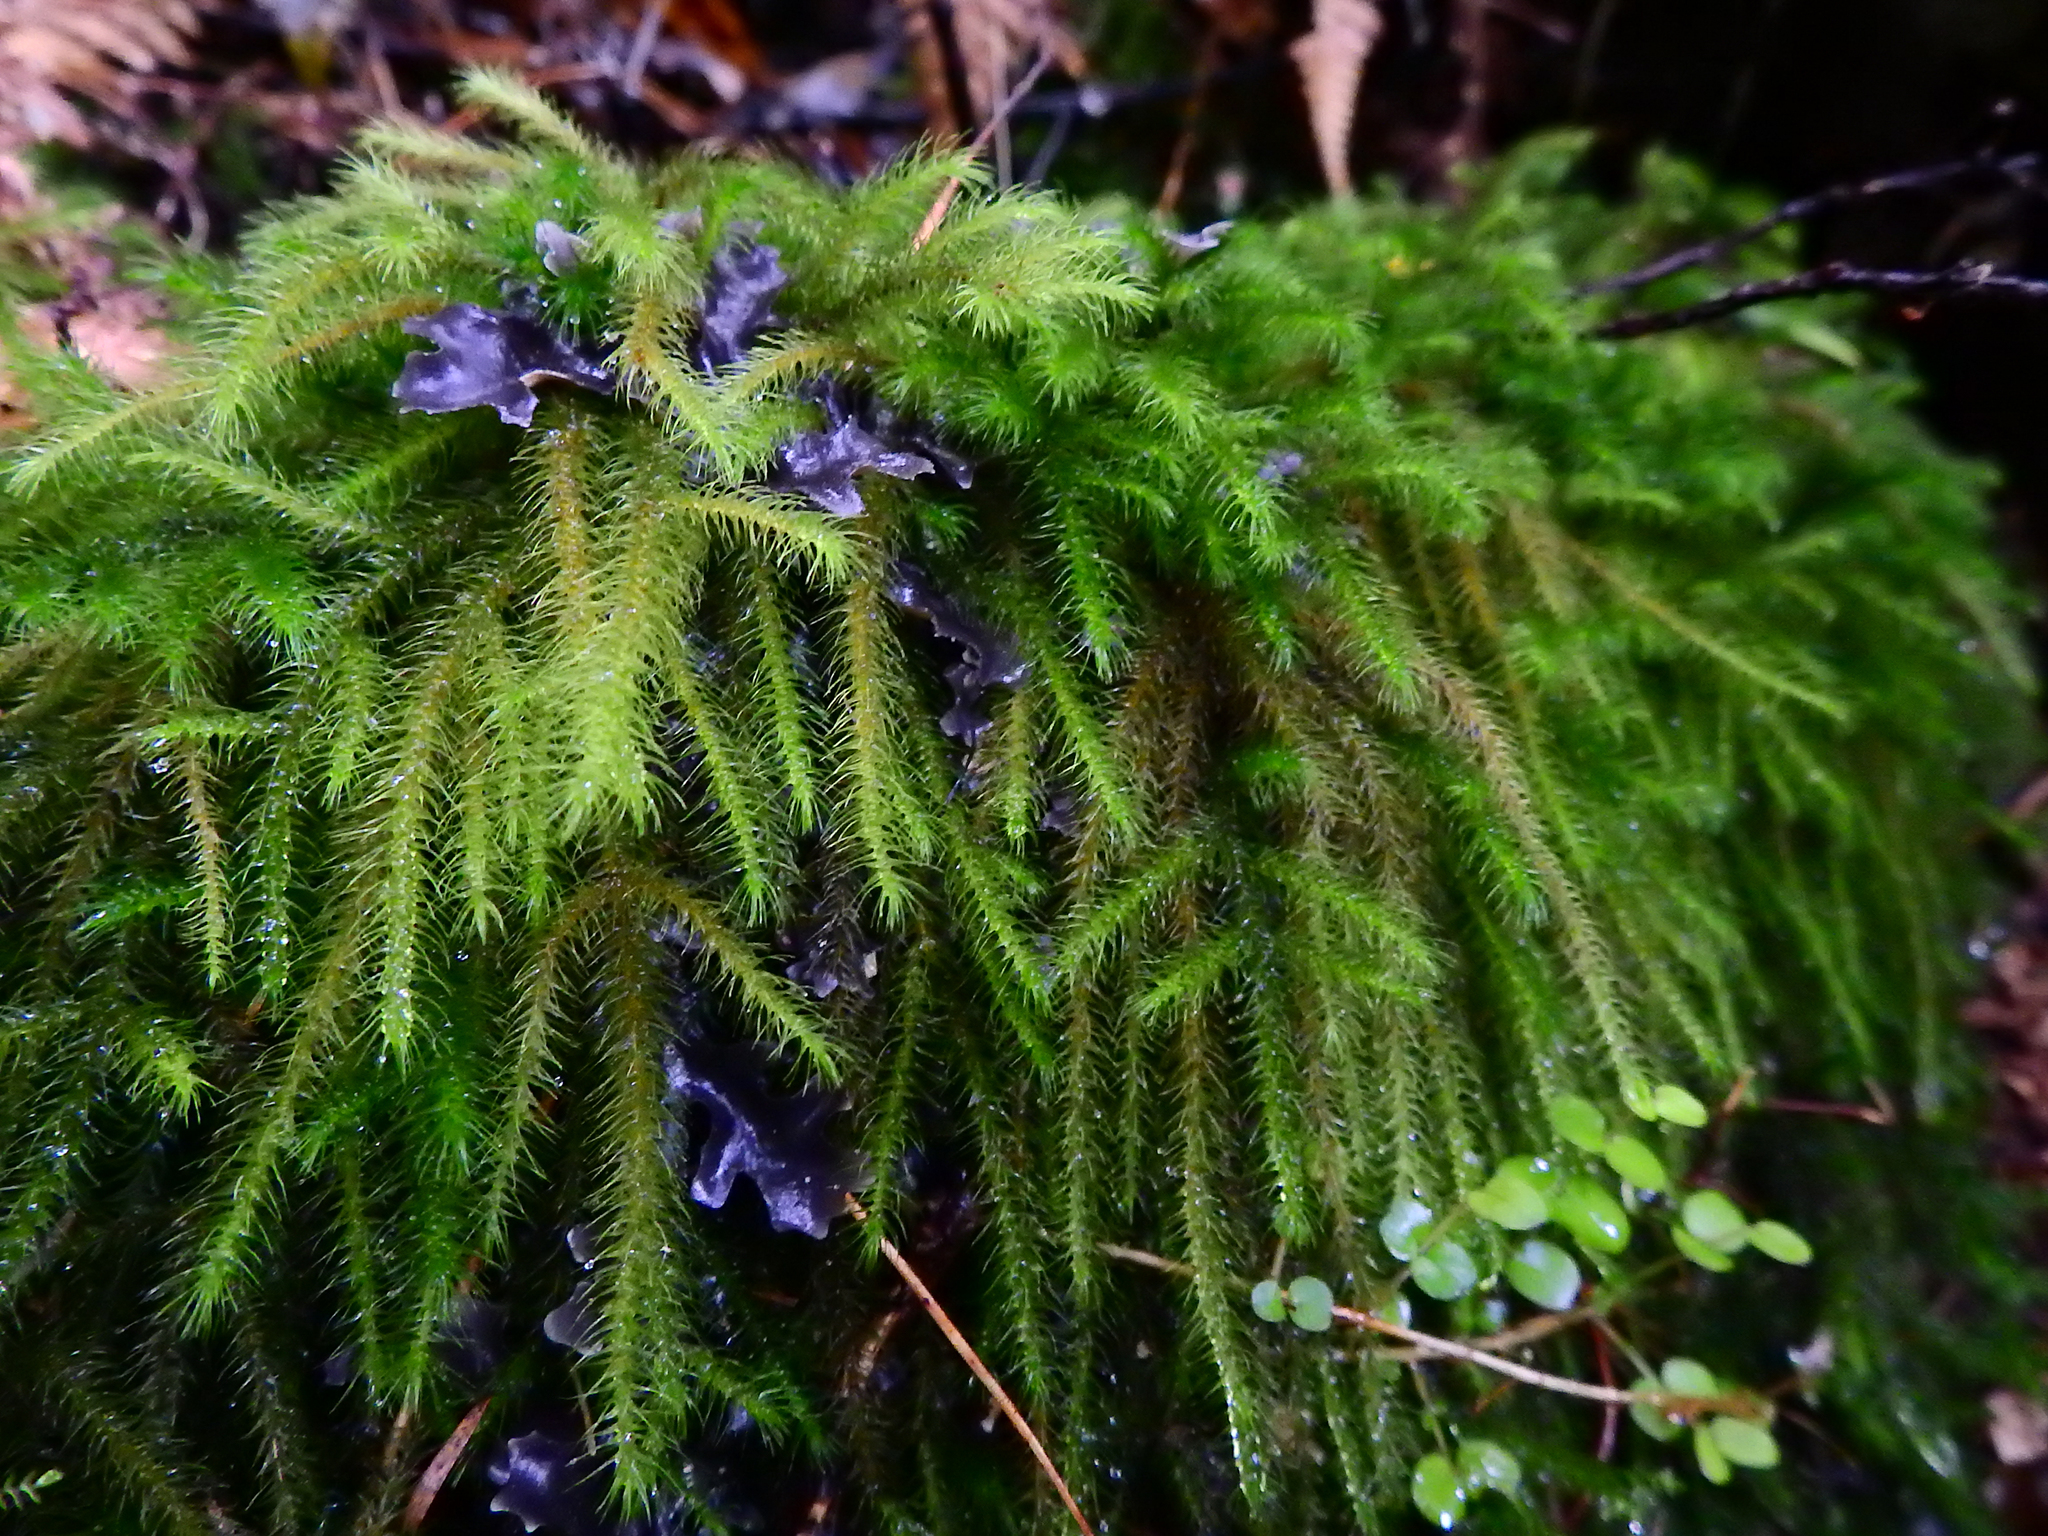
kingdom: Plantae
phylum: Bryophyta
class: Bryopsida
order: Hypnales
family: Neckeraceae
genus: Echinodiopsis
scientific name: Echinodiopsis hispida
